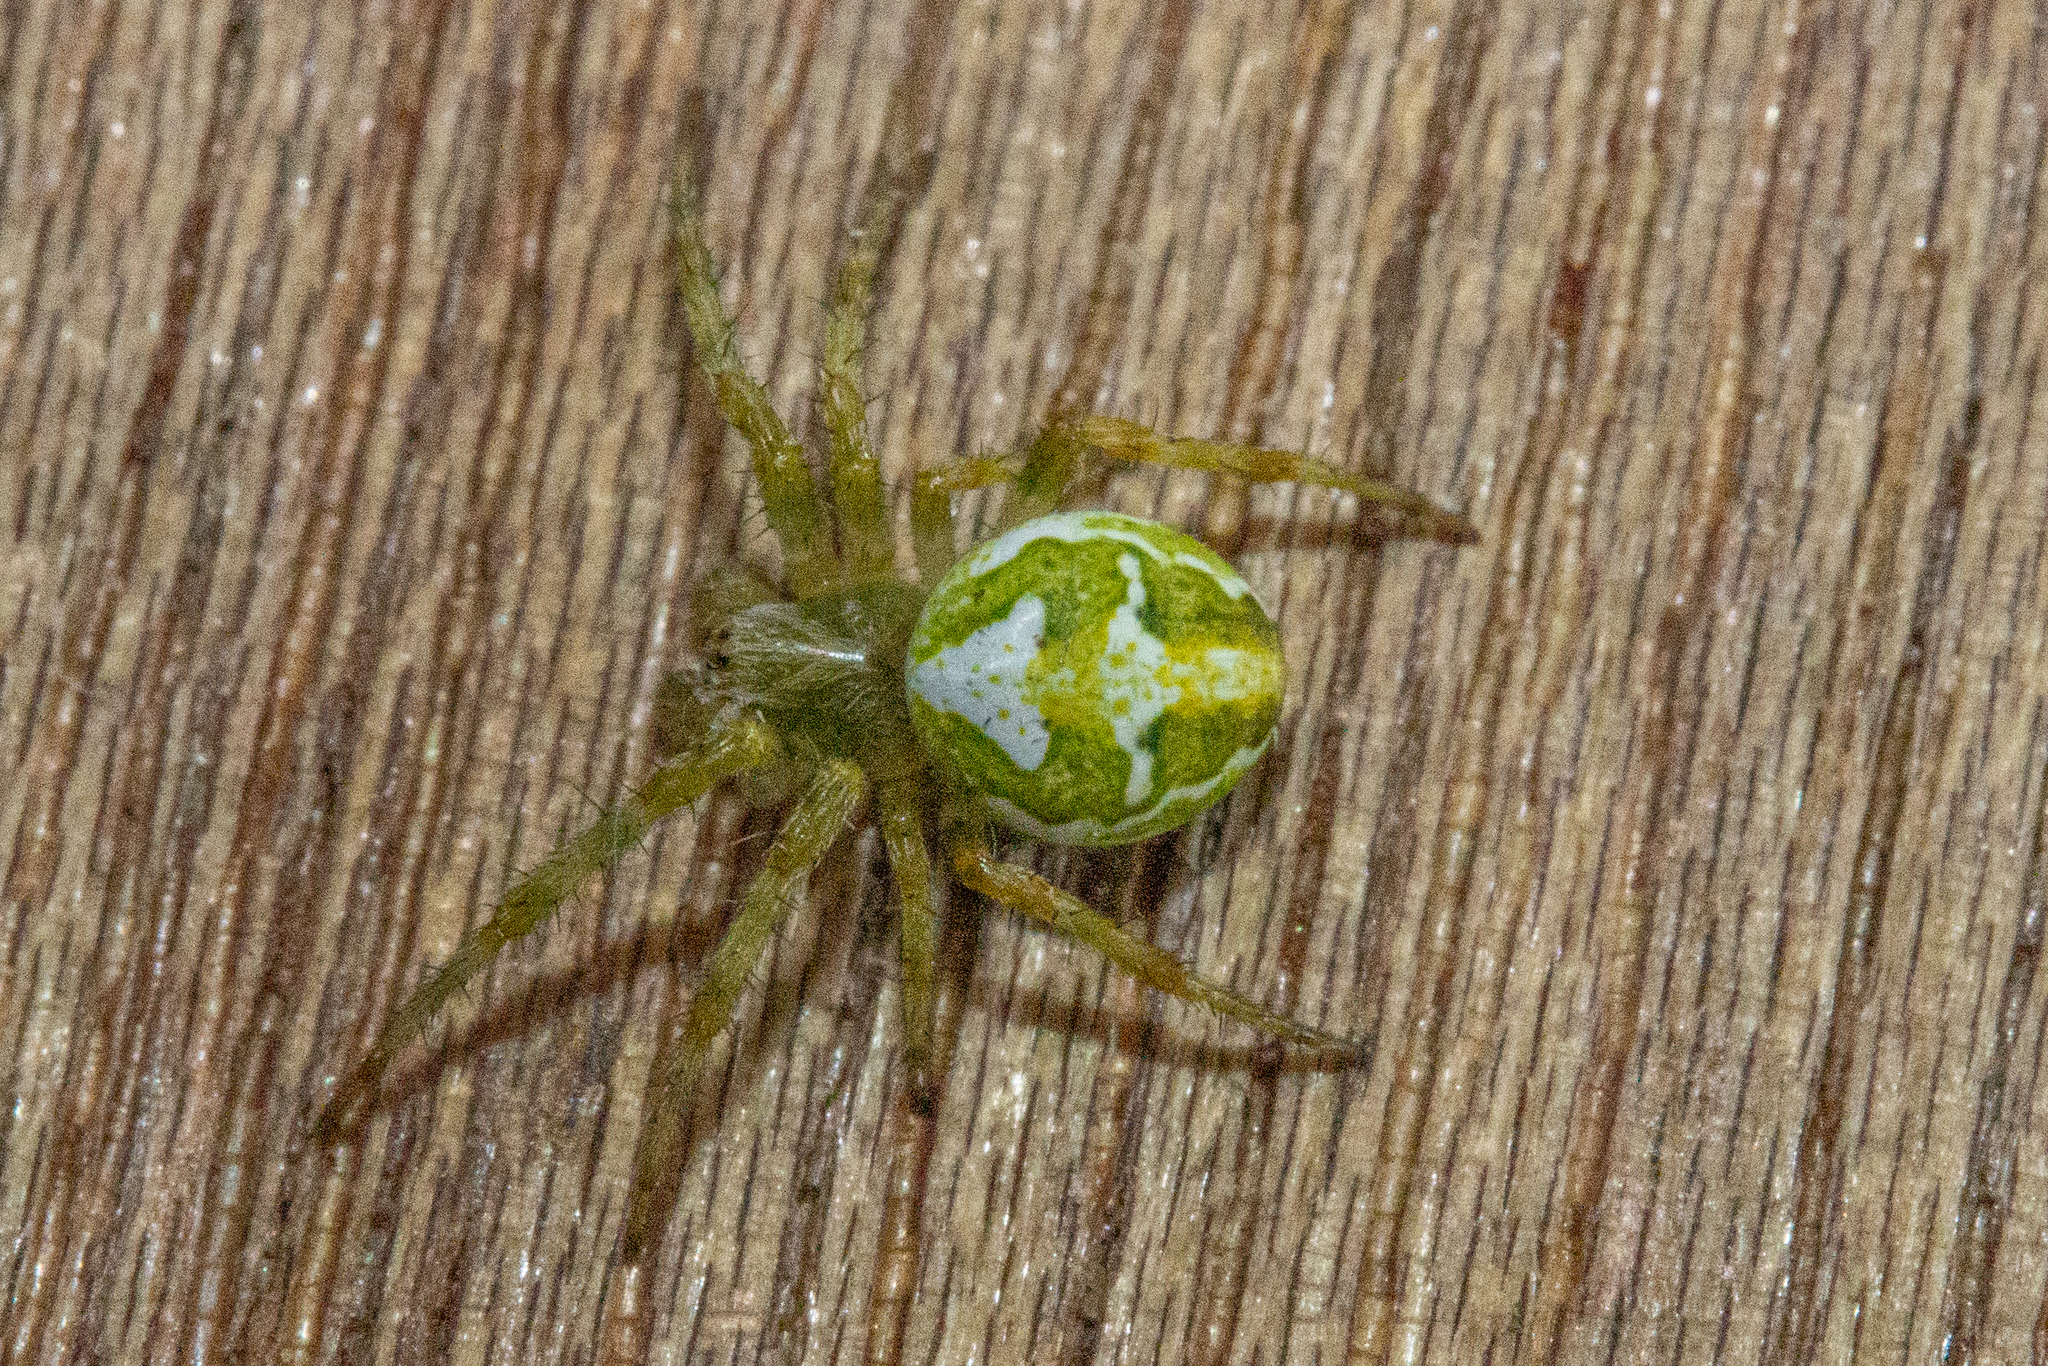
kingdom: Animalia
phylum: Arthropoda
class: Arachnida
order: Araneae
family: Araneidae
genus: Colaranea
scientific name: Colaranea verutum
